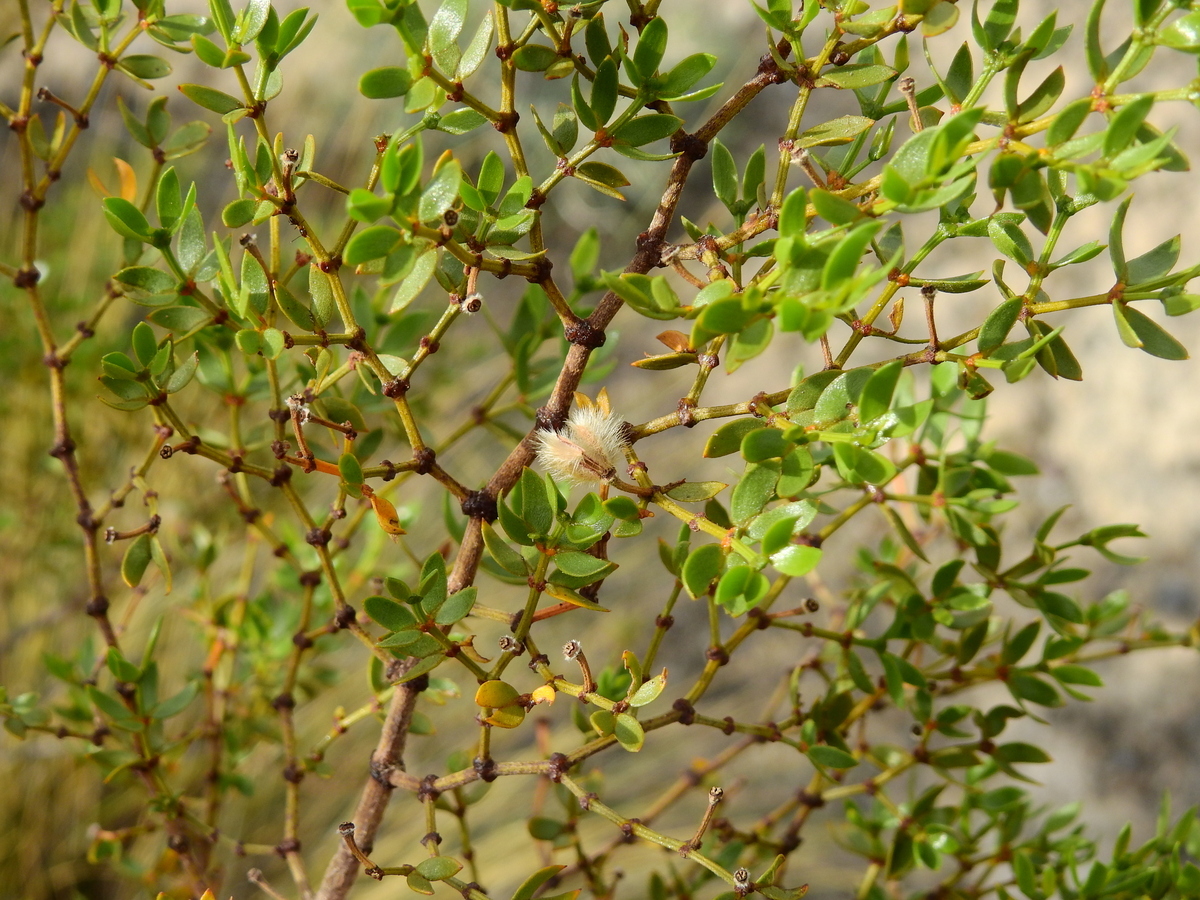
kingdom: Plantae
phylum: Tracheophyta
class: Magnoliopsida
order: Zygophyllales
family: Zygophyllaceae
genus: Larrea
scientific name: Larrea divaricata
